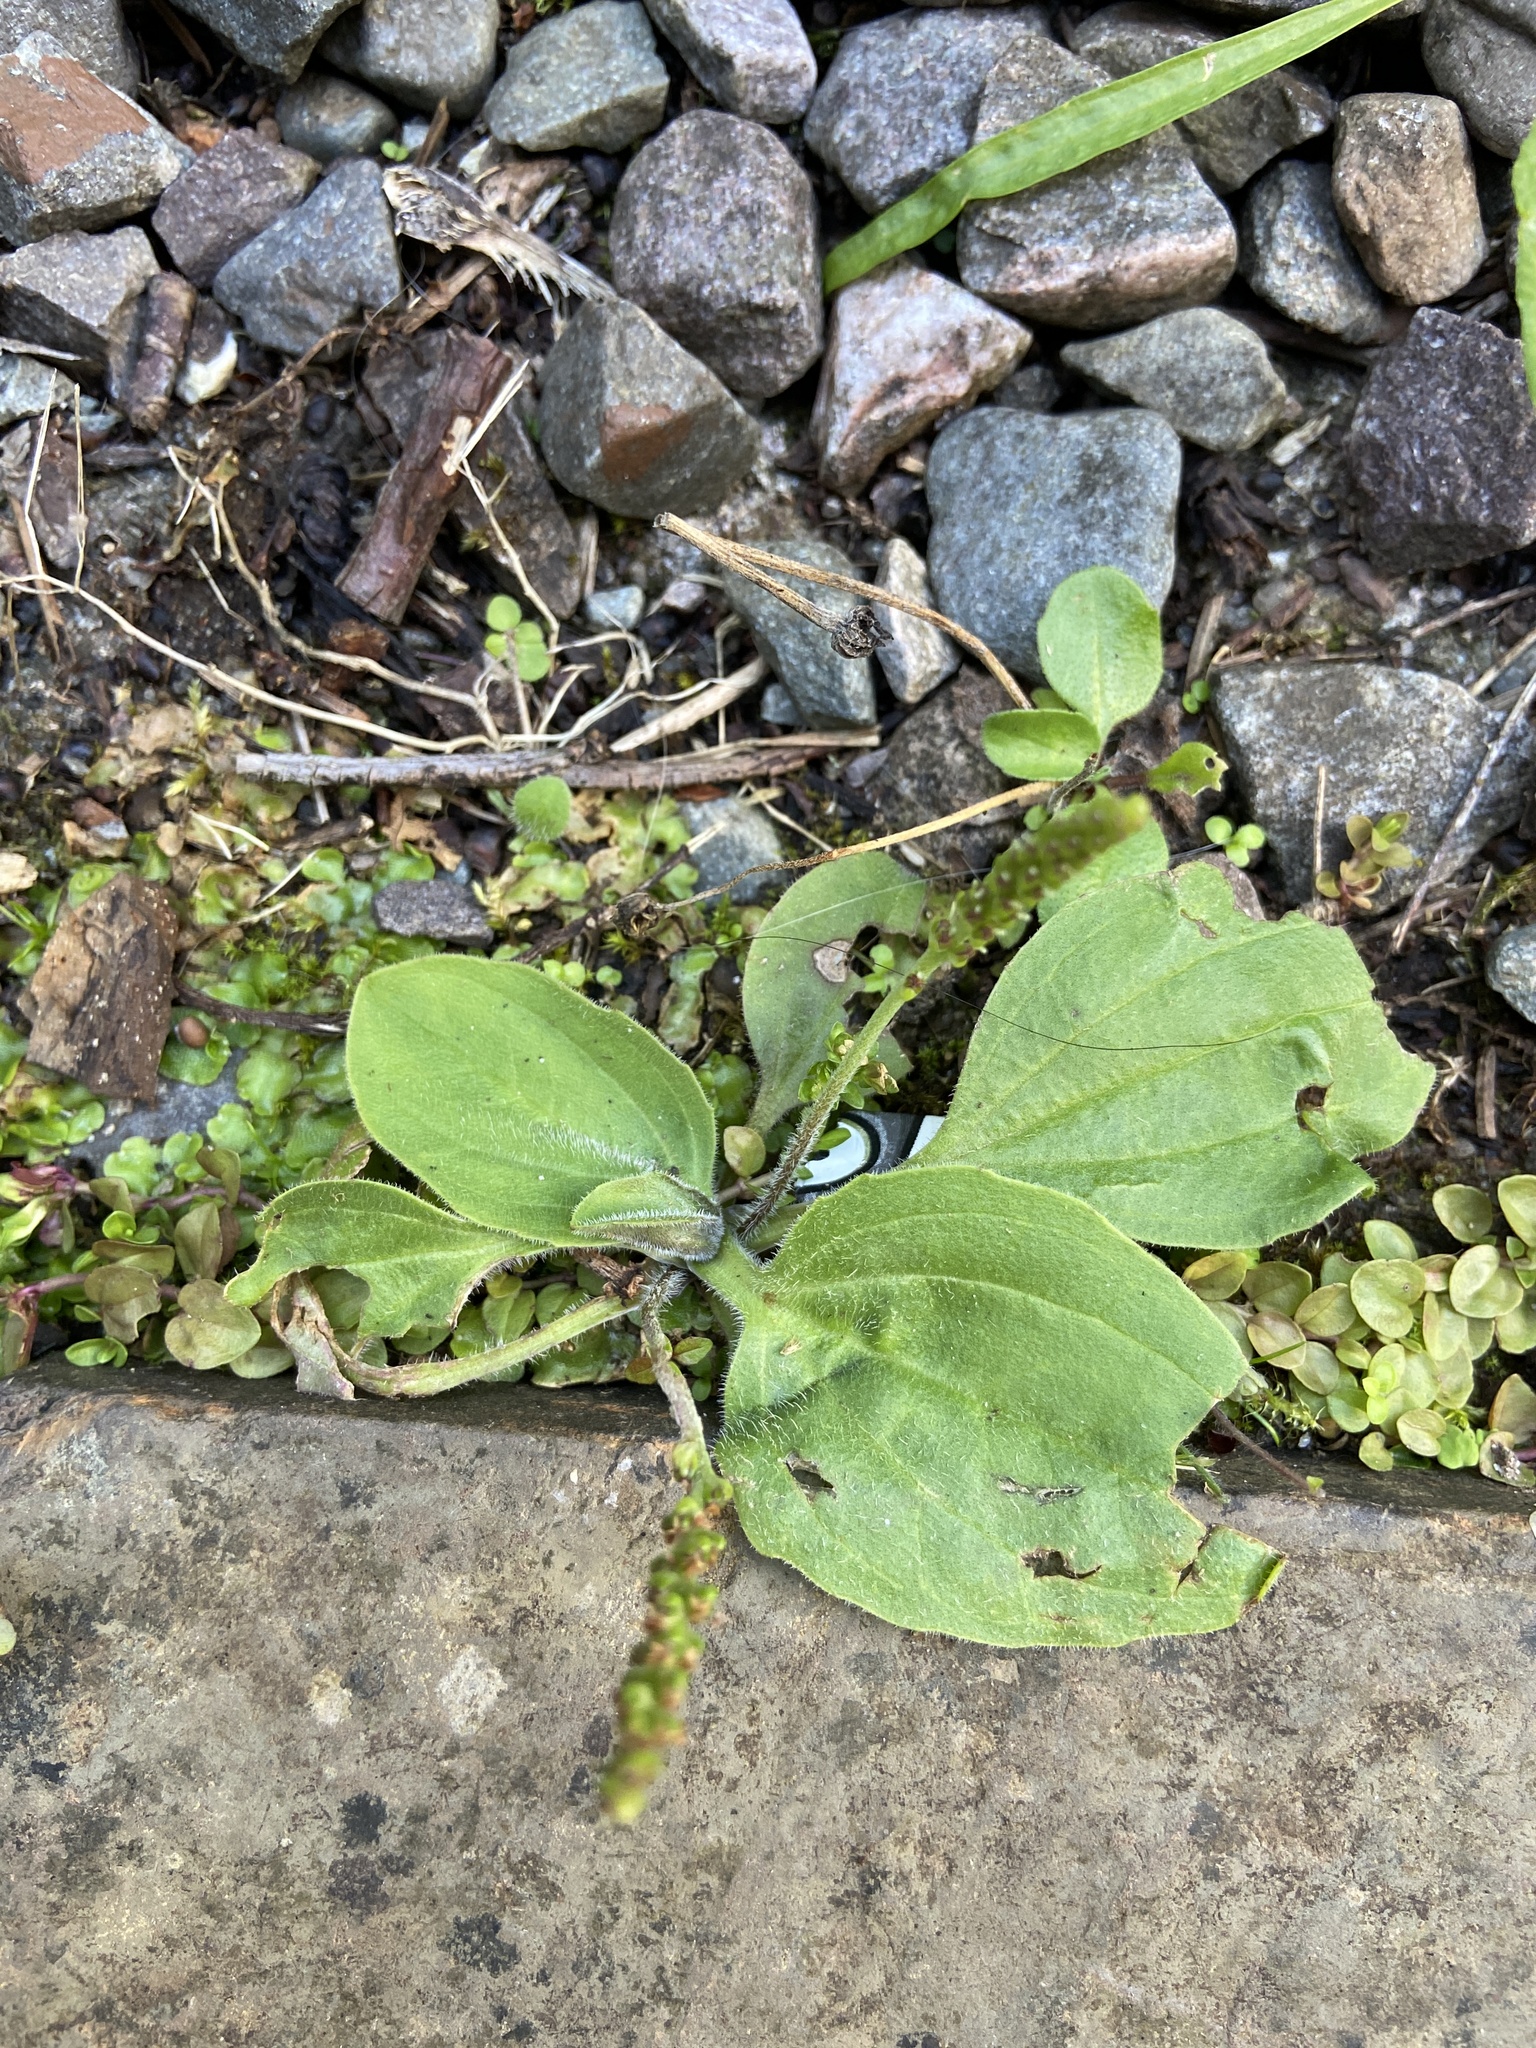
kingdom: Plantae
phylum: Tracheophyta
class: Magnoliopsida
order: Lamiales
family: Plantaginaceae
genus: Plantago
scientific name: Plantago major
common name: Common plantain
